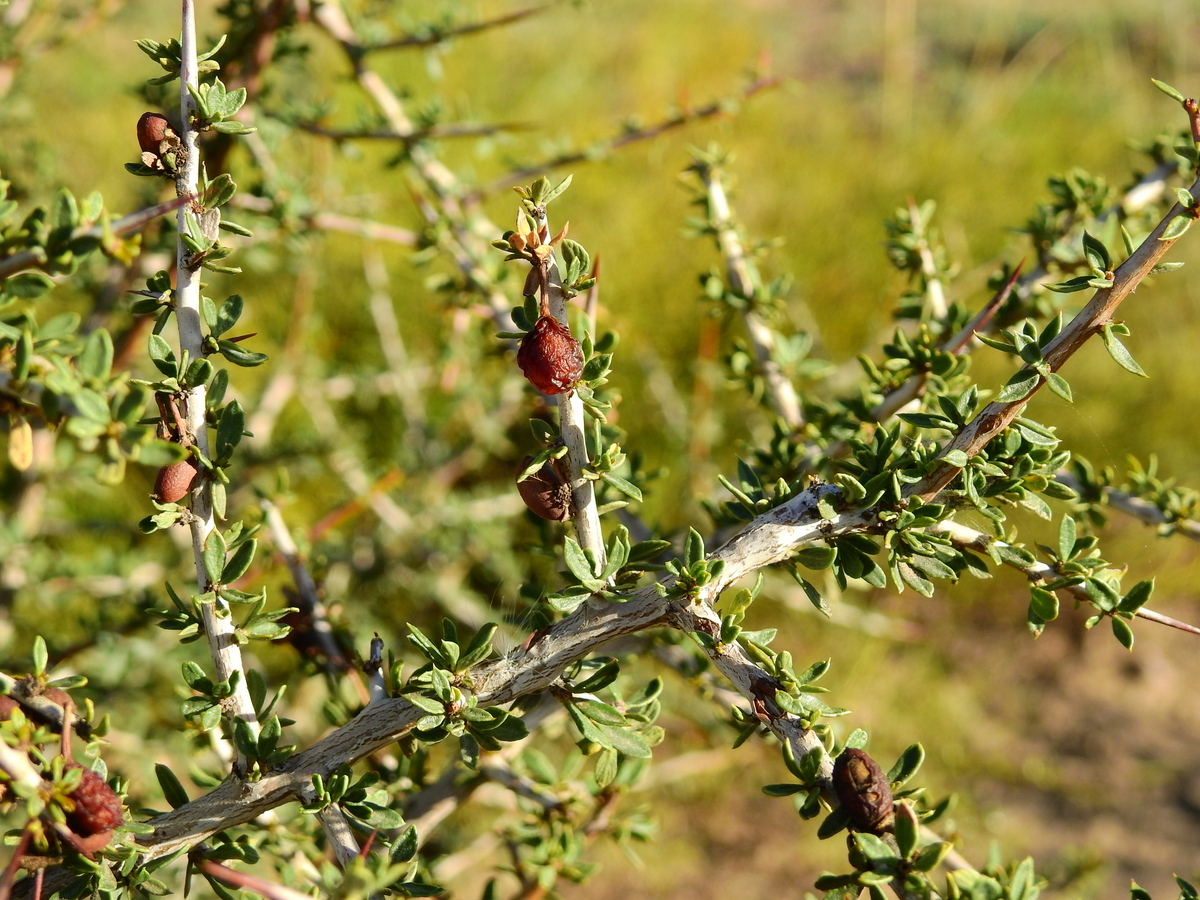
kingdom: Plantae
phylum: Tracheophyta
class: Magnoliopsida
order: Rosales
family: Rhamnaceae
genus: Condalia
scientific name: Condalia microphylla
